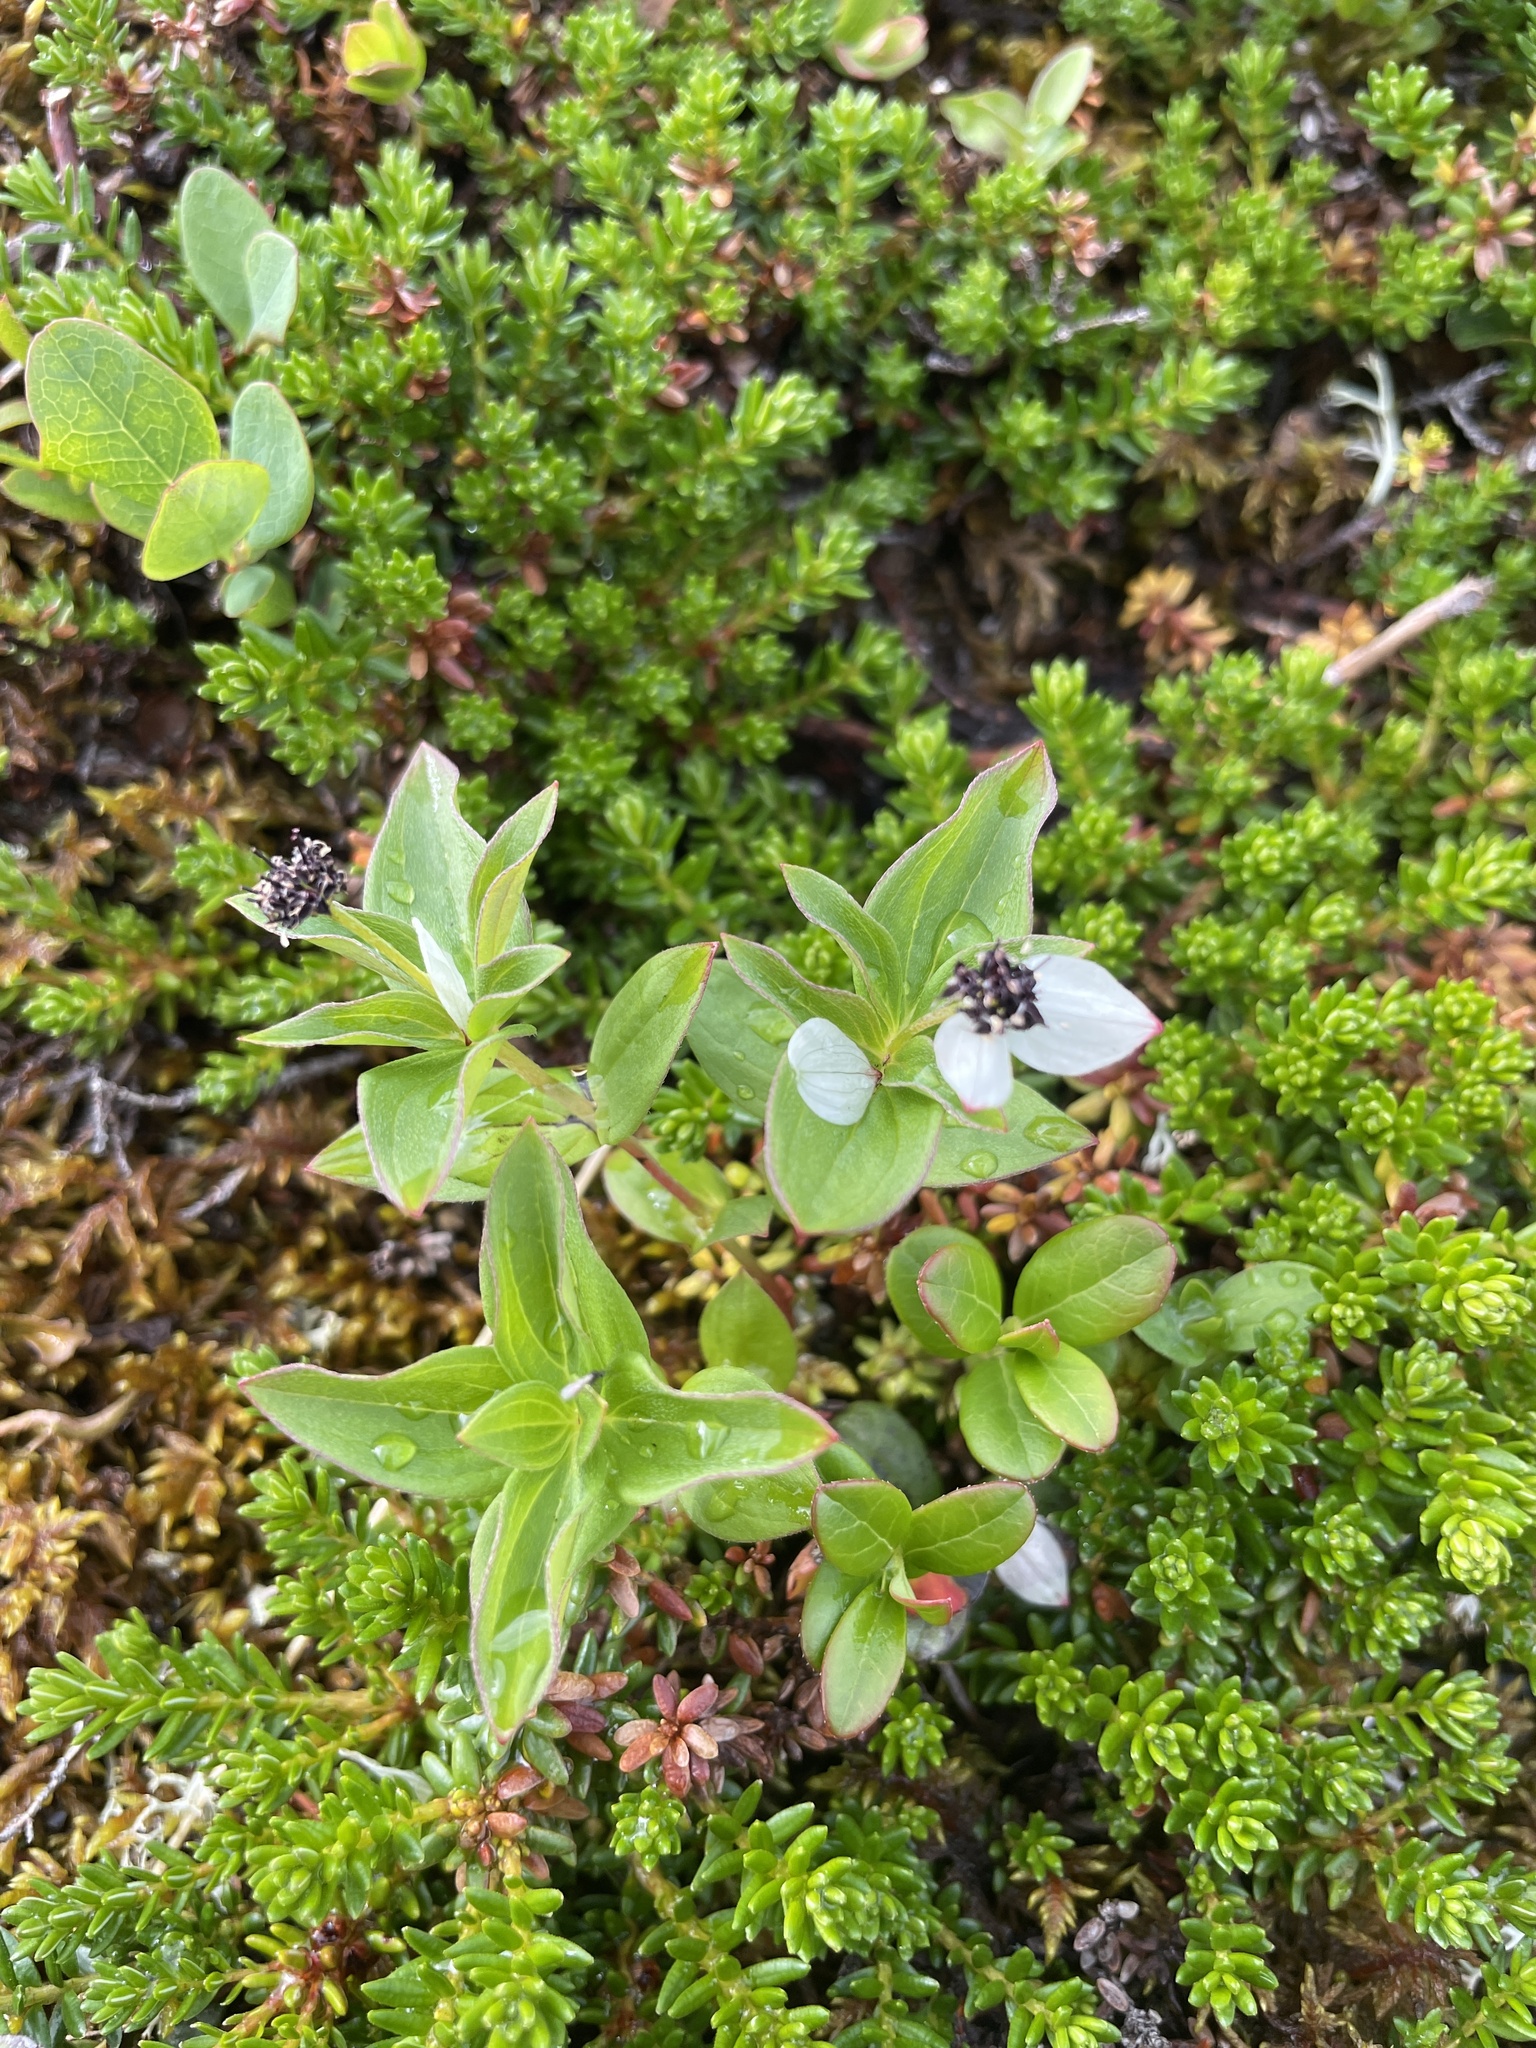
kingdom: Plantae
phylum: Tracheophyta
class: Magnoliopsida
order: Cornales
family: Cornaceae
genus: Cornus
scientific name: Cornus suecica
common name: Dwarf cornel
